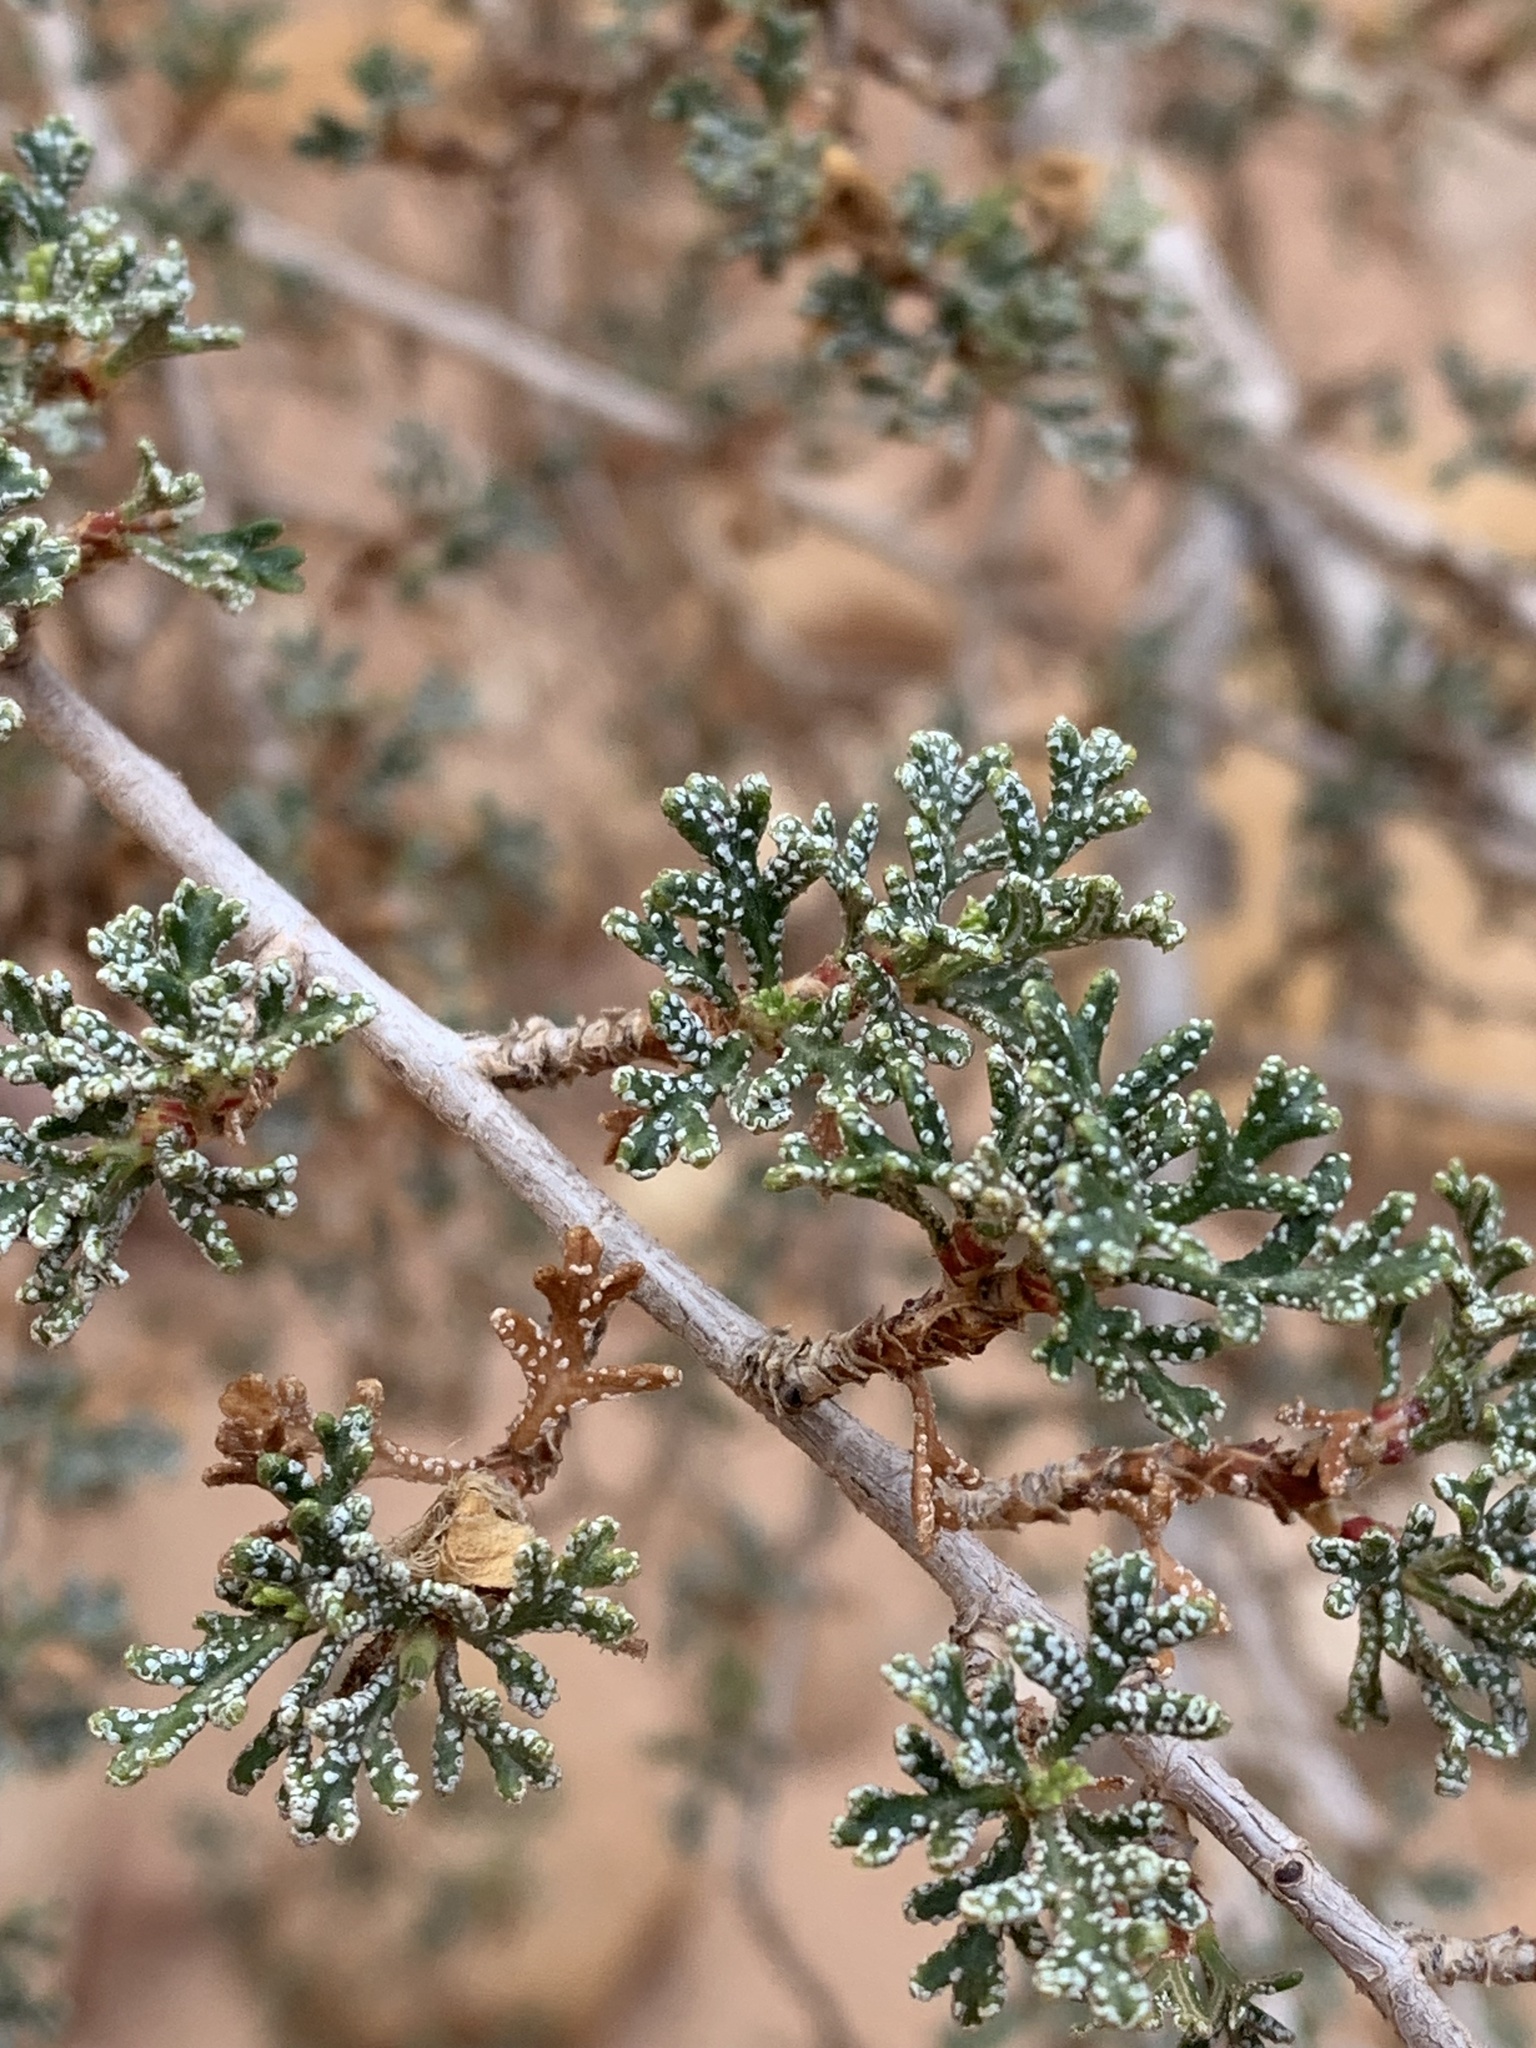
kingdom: Plantae
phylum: Tracheophyta
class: Magnoliopsida
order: Rosales
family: Rosaceae
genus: Purshia
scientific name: Purshia stansburiana
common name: Stansbury's cliffrose
